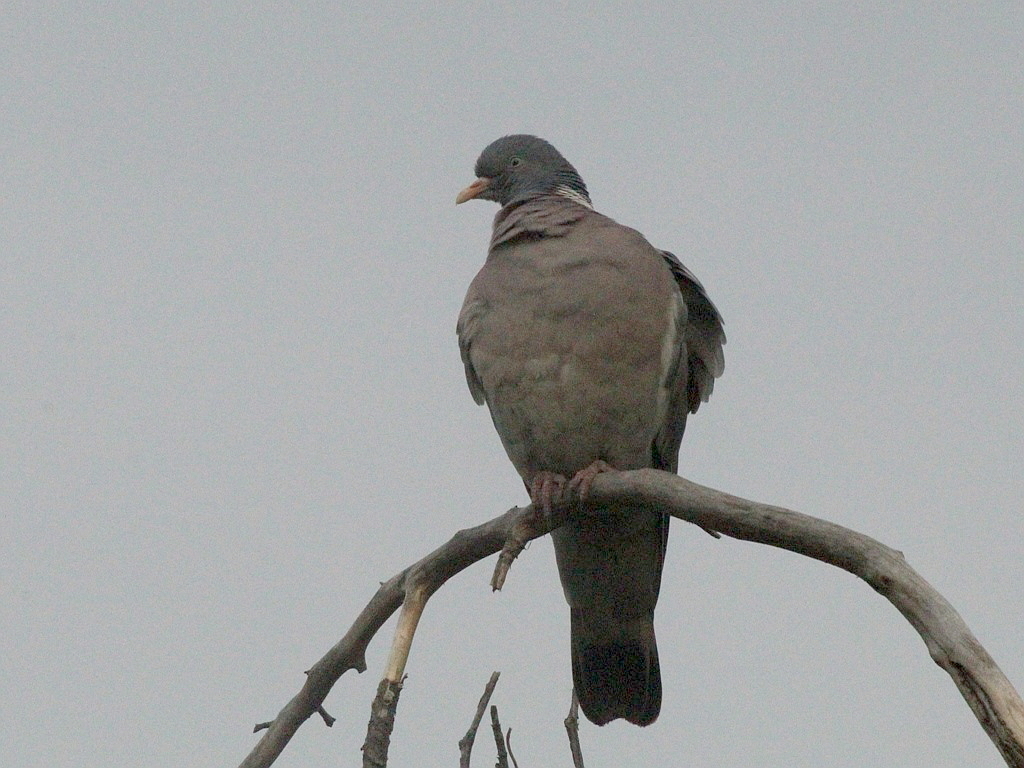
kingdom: Animalia
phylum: Chordata
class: Aves
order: Columbiformes
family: Columbidae
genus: Columba
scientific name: Columba palumbus
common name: Common wood pigeon
